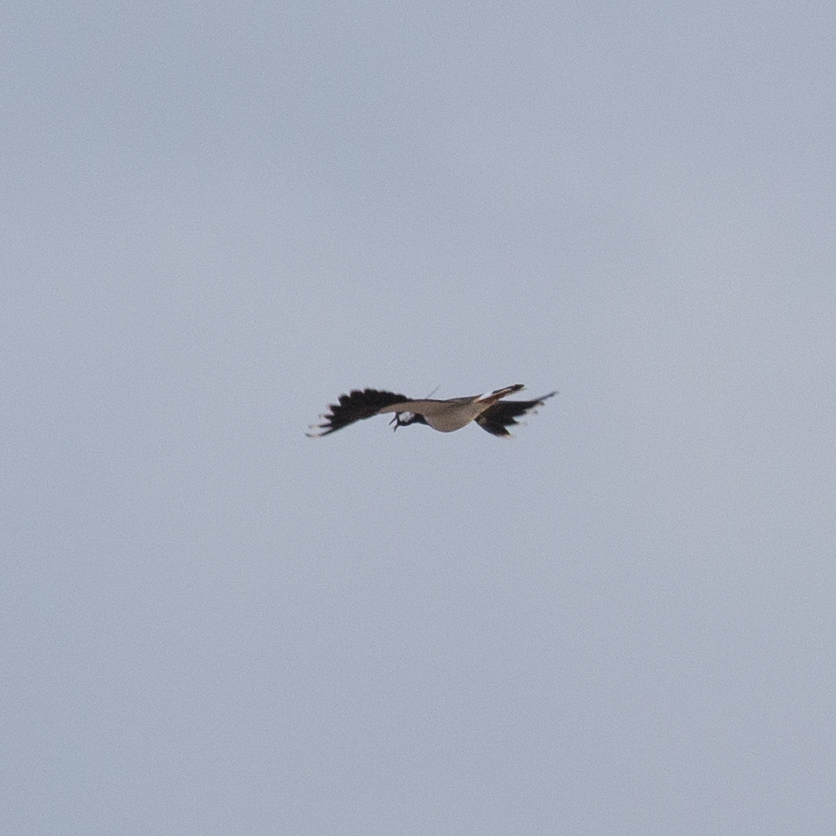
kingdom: Animalia
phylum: Chordata
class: Aves
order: Charadriiformes
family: Charadriidae
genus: Vanellus
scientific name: Vanellus vanellus
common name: Northern lapwing
